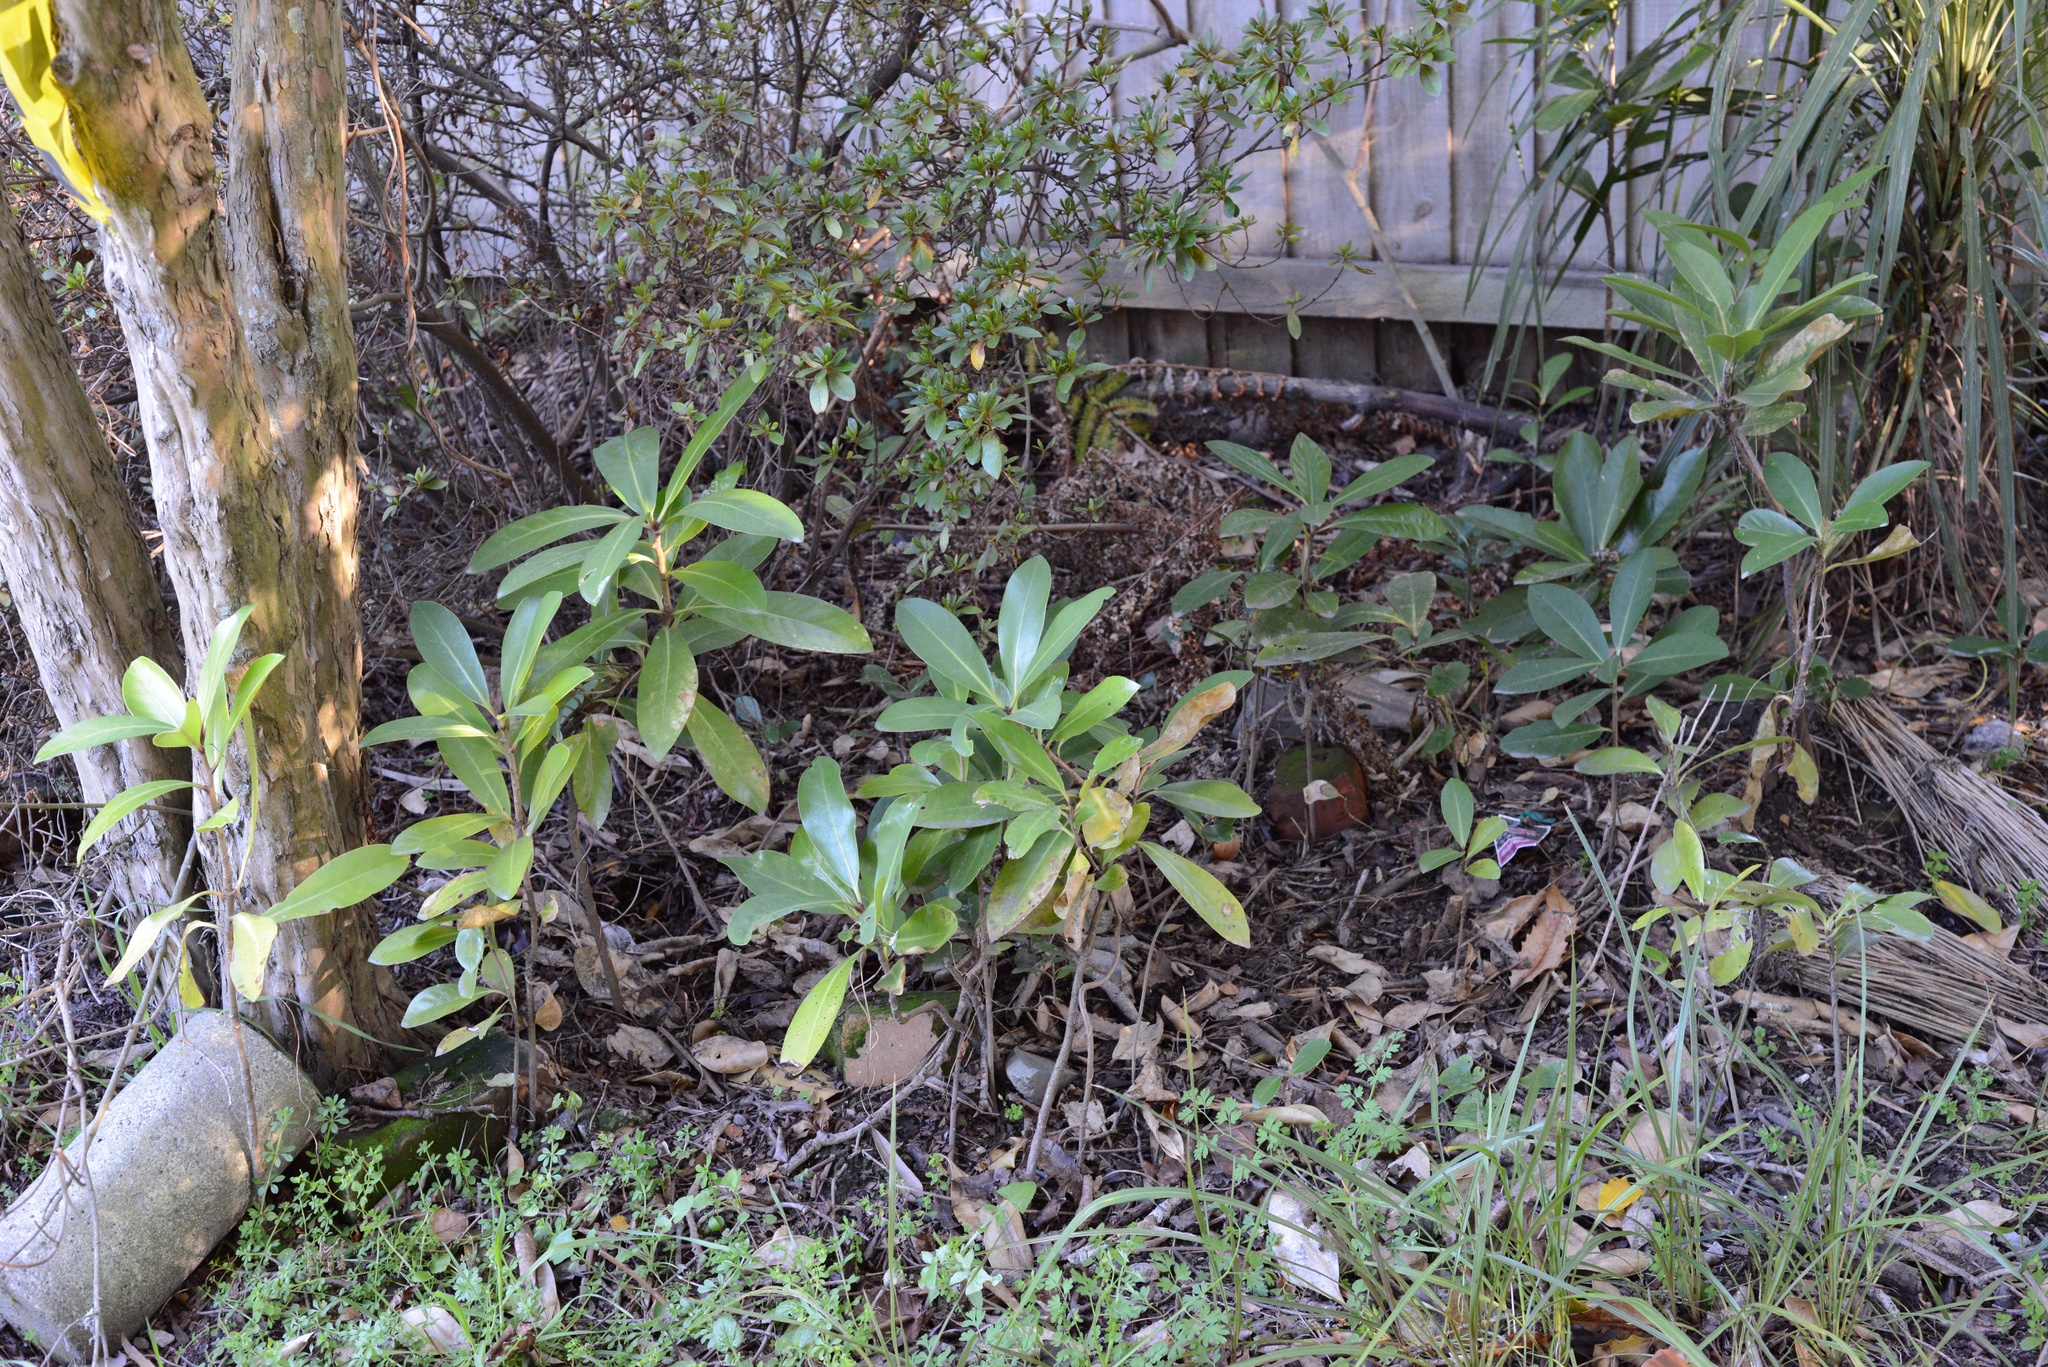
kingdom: Plantae
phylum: Tracheophyta
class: Magnoliopsida
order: Cucurbitales
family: Corynocarpaceae
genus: Corynocarpus
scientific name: Corynocarpus laevigatus
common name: New zealand laurel
